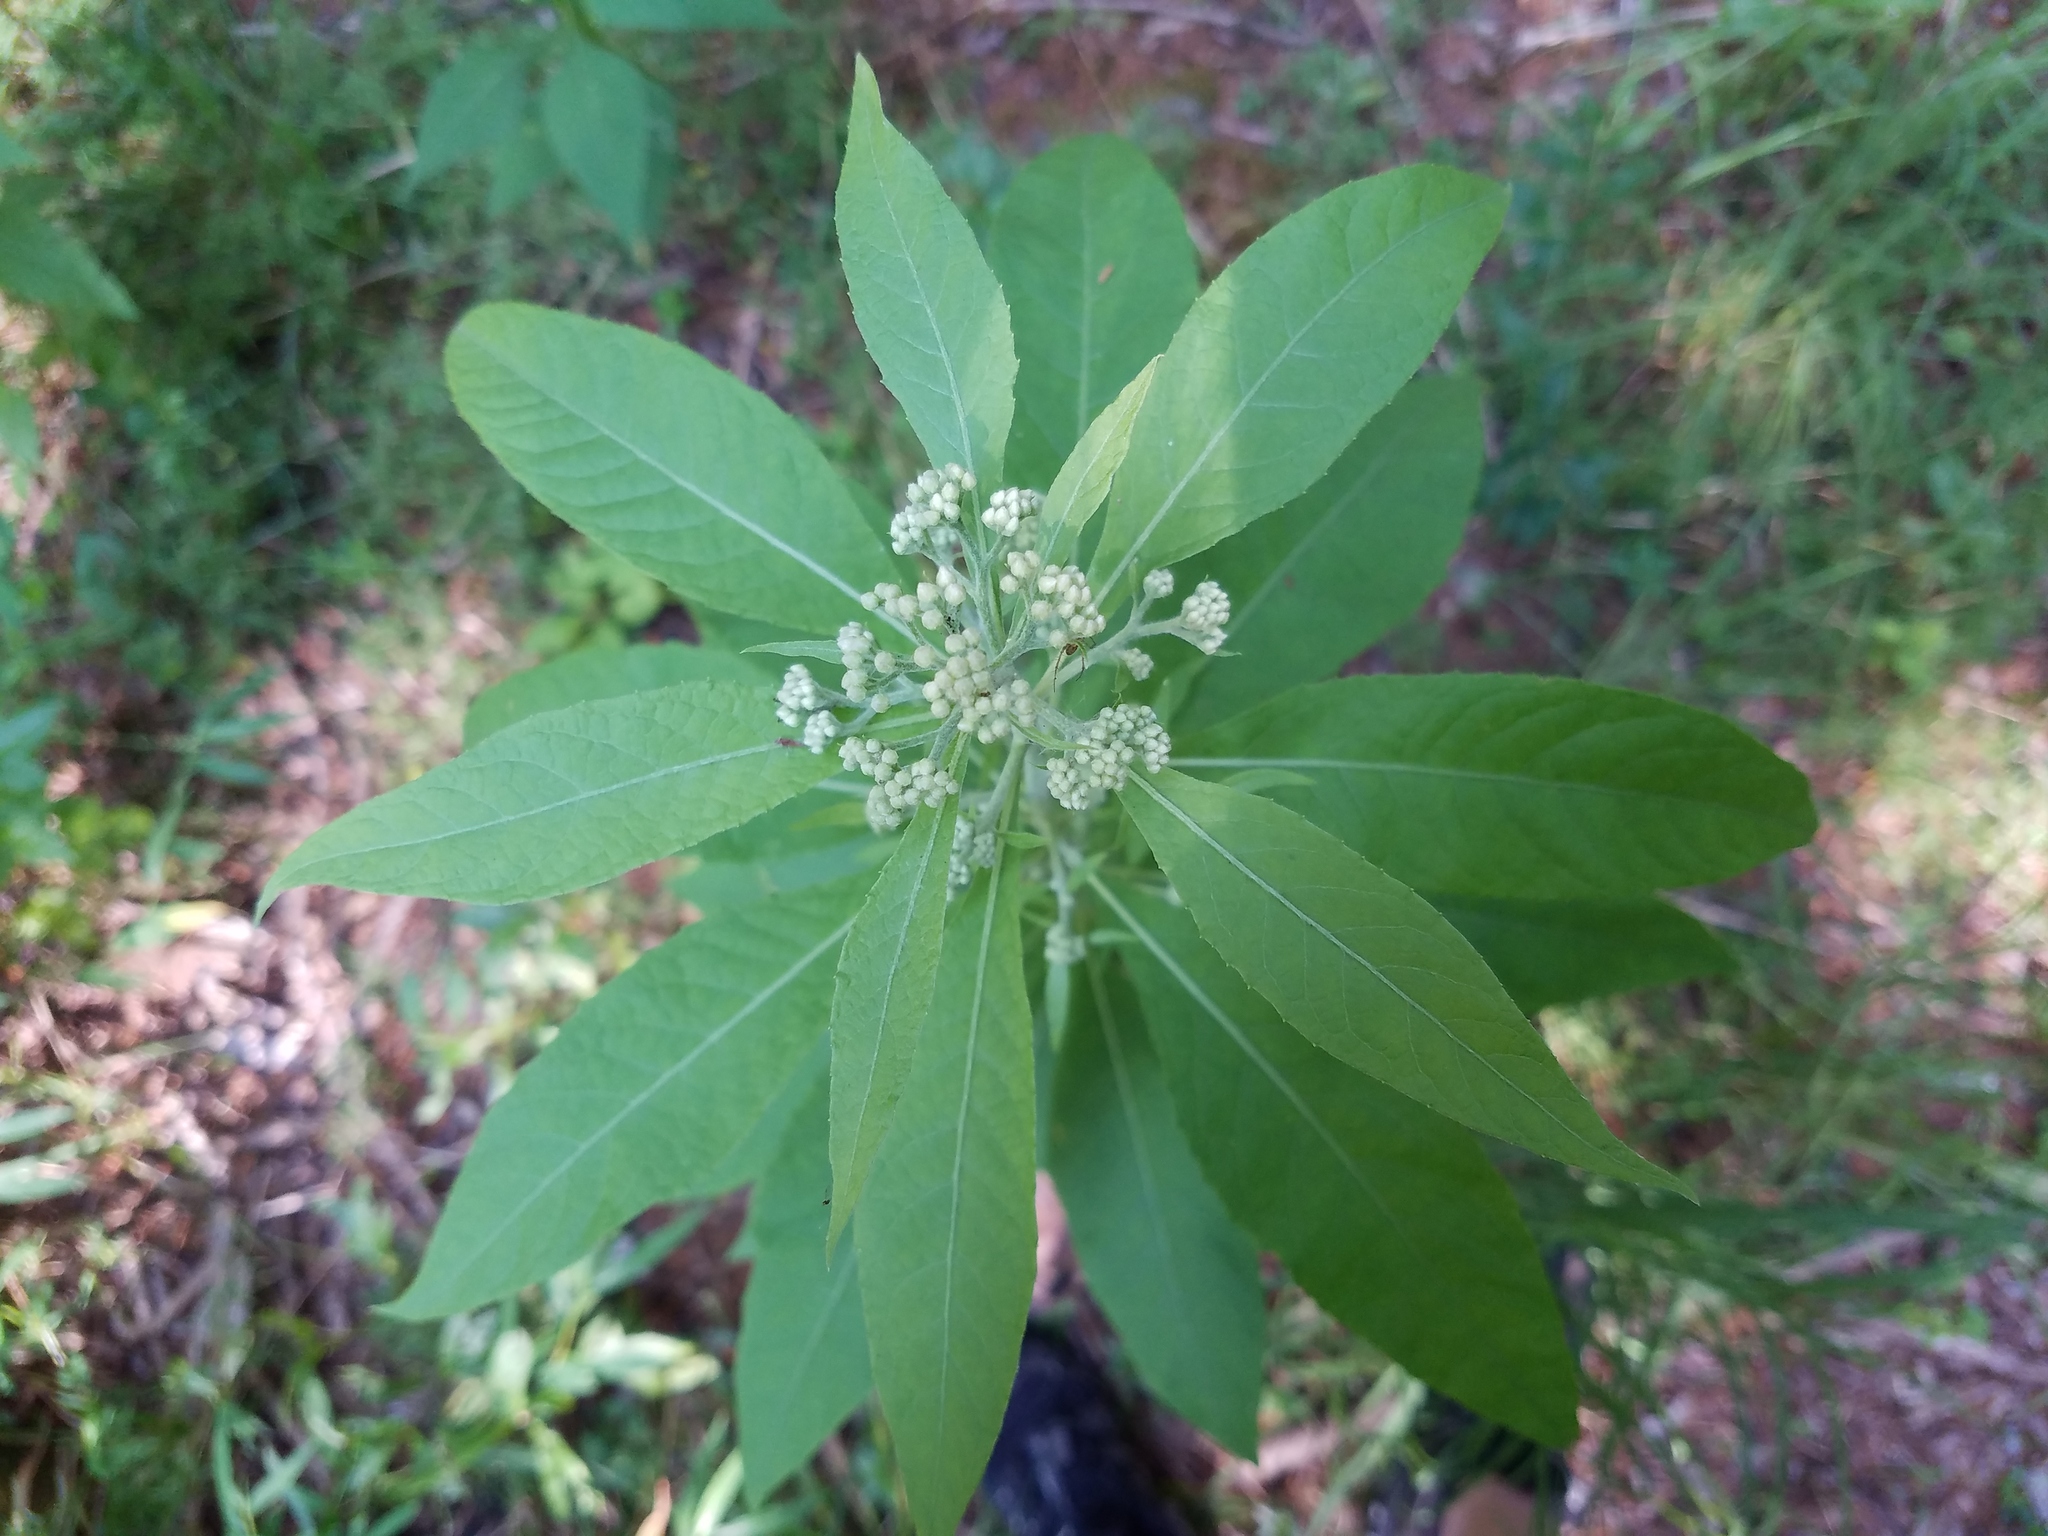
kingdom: Plantae
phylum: Tracheophyta
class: Magnoliopsida
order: Asterales
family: Asteraceae
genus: Pluchea
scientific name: Pluchea camphorata
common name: Camphor pluchea
